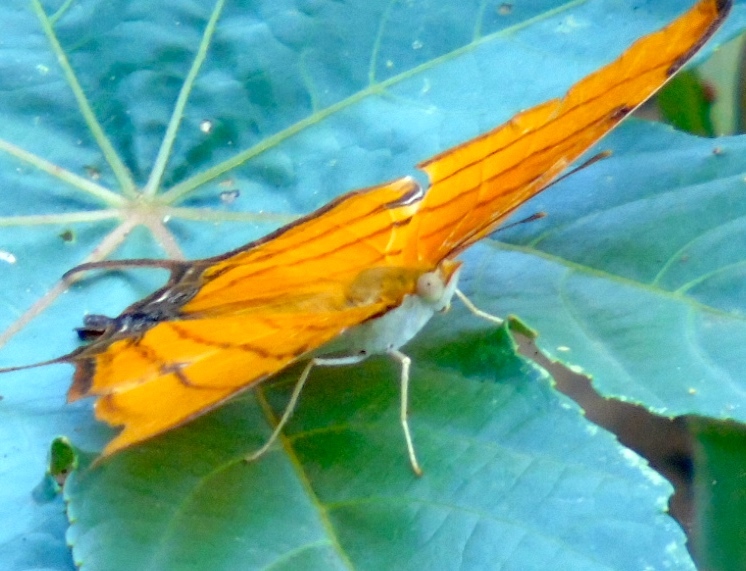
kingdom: Animalia
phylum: Arthropoda
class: Insecta
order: Lepidoptera
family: Nymphalidae
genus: Marpesia
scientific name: Marpesia petreus
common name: Red dagger wing
